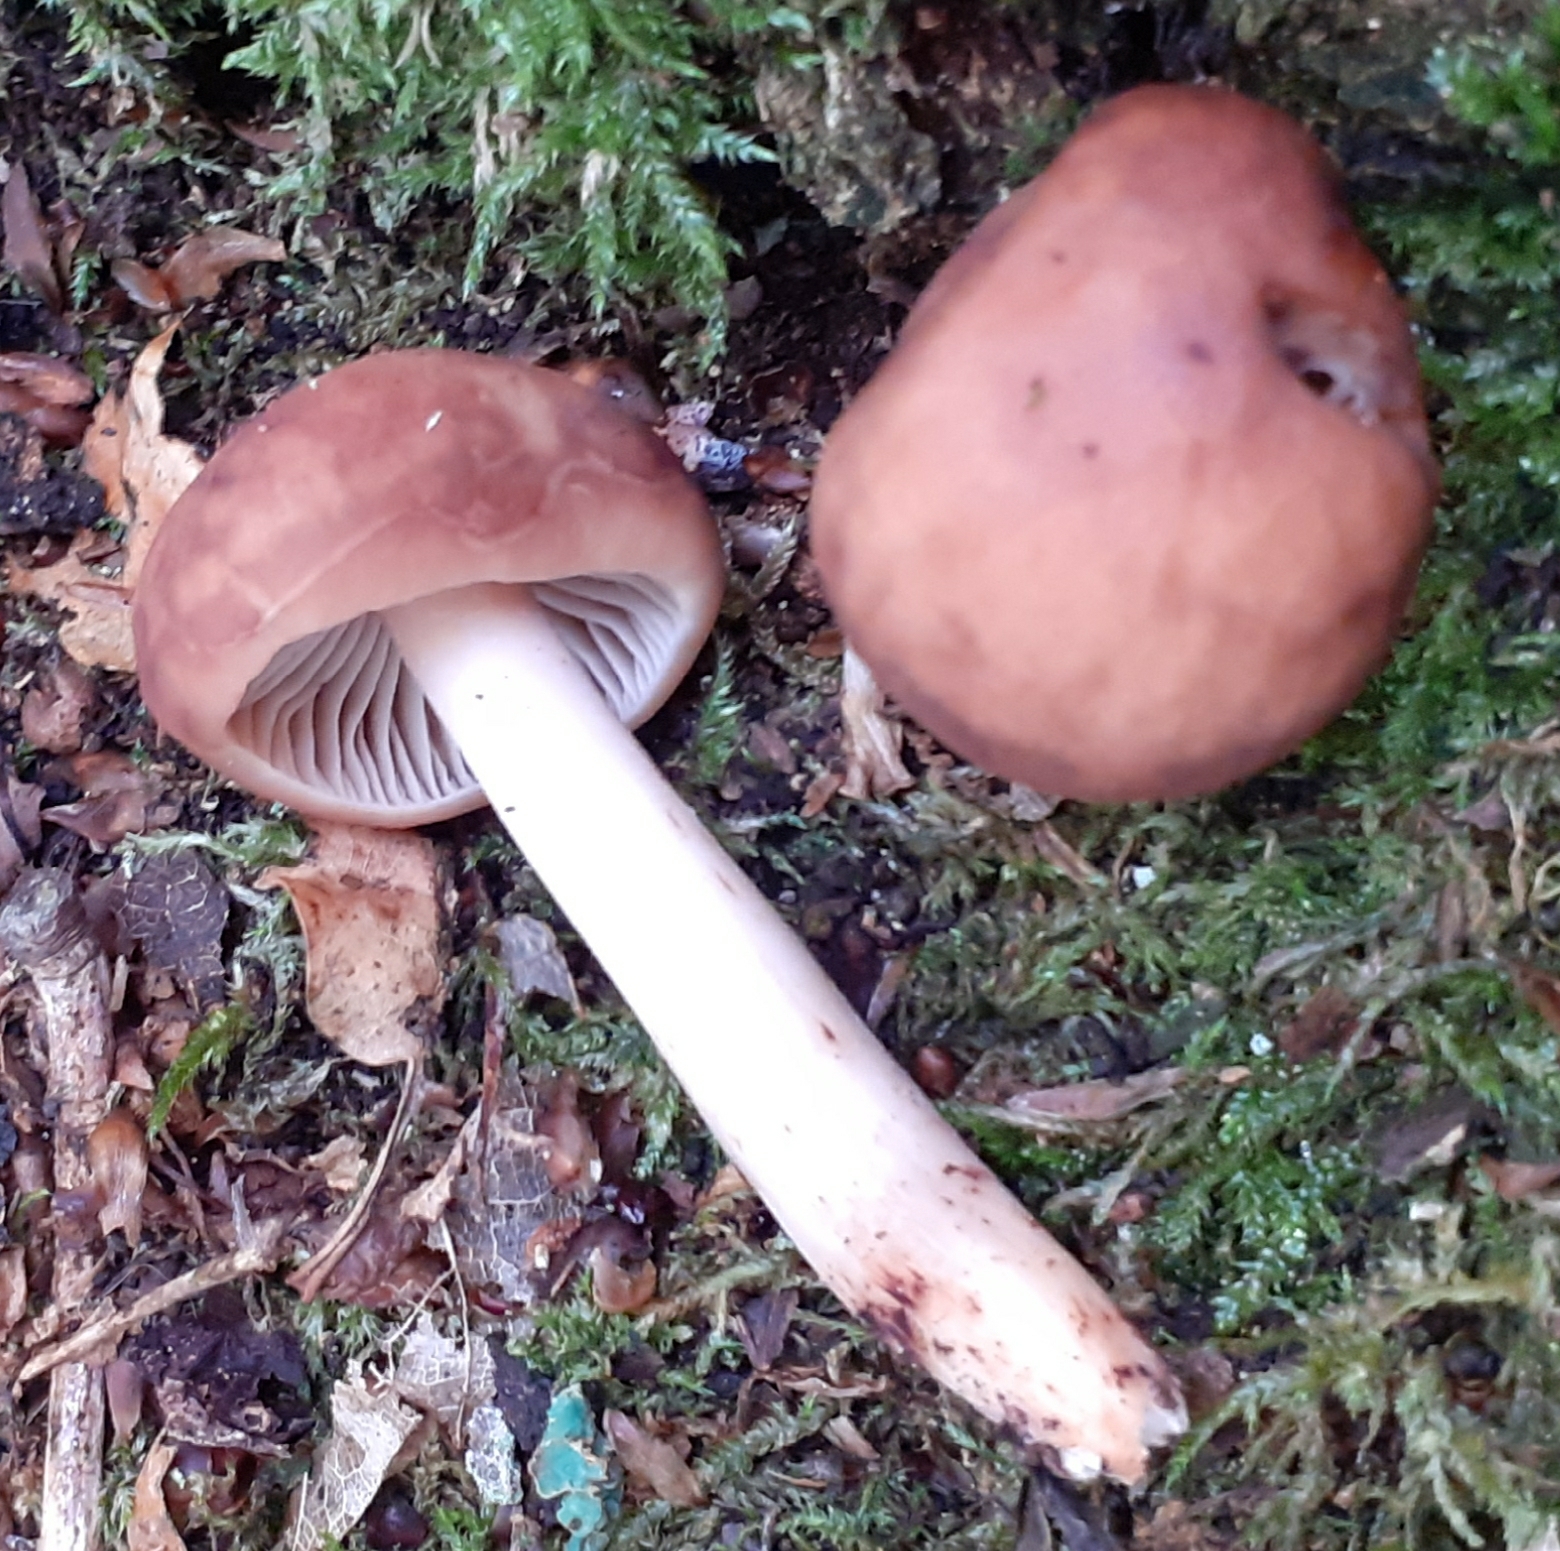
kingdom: Fungi
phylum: Basidiomycota
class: Agaricomycetes
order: Agaricales
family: Omphalotaceae
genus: Gymnopus
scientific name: Gymnopus fusipes
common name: Spindle shank
